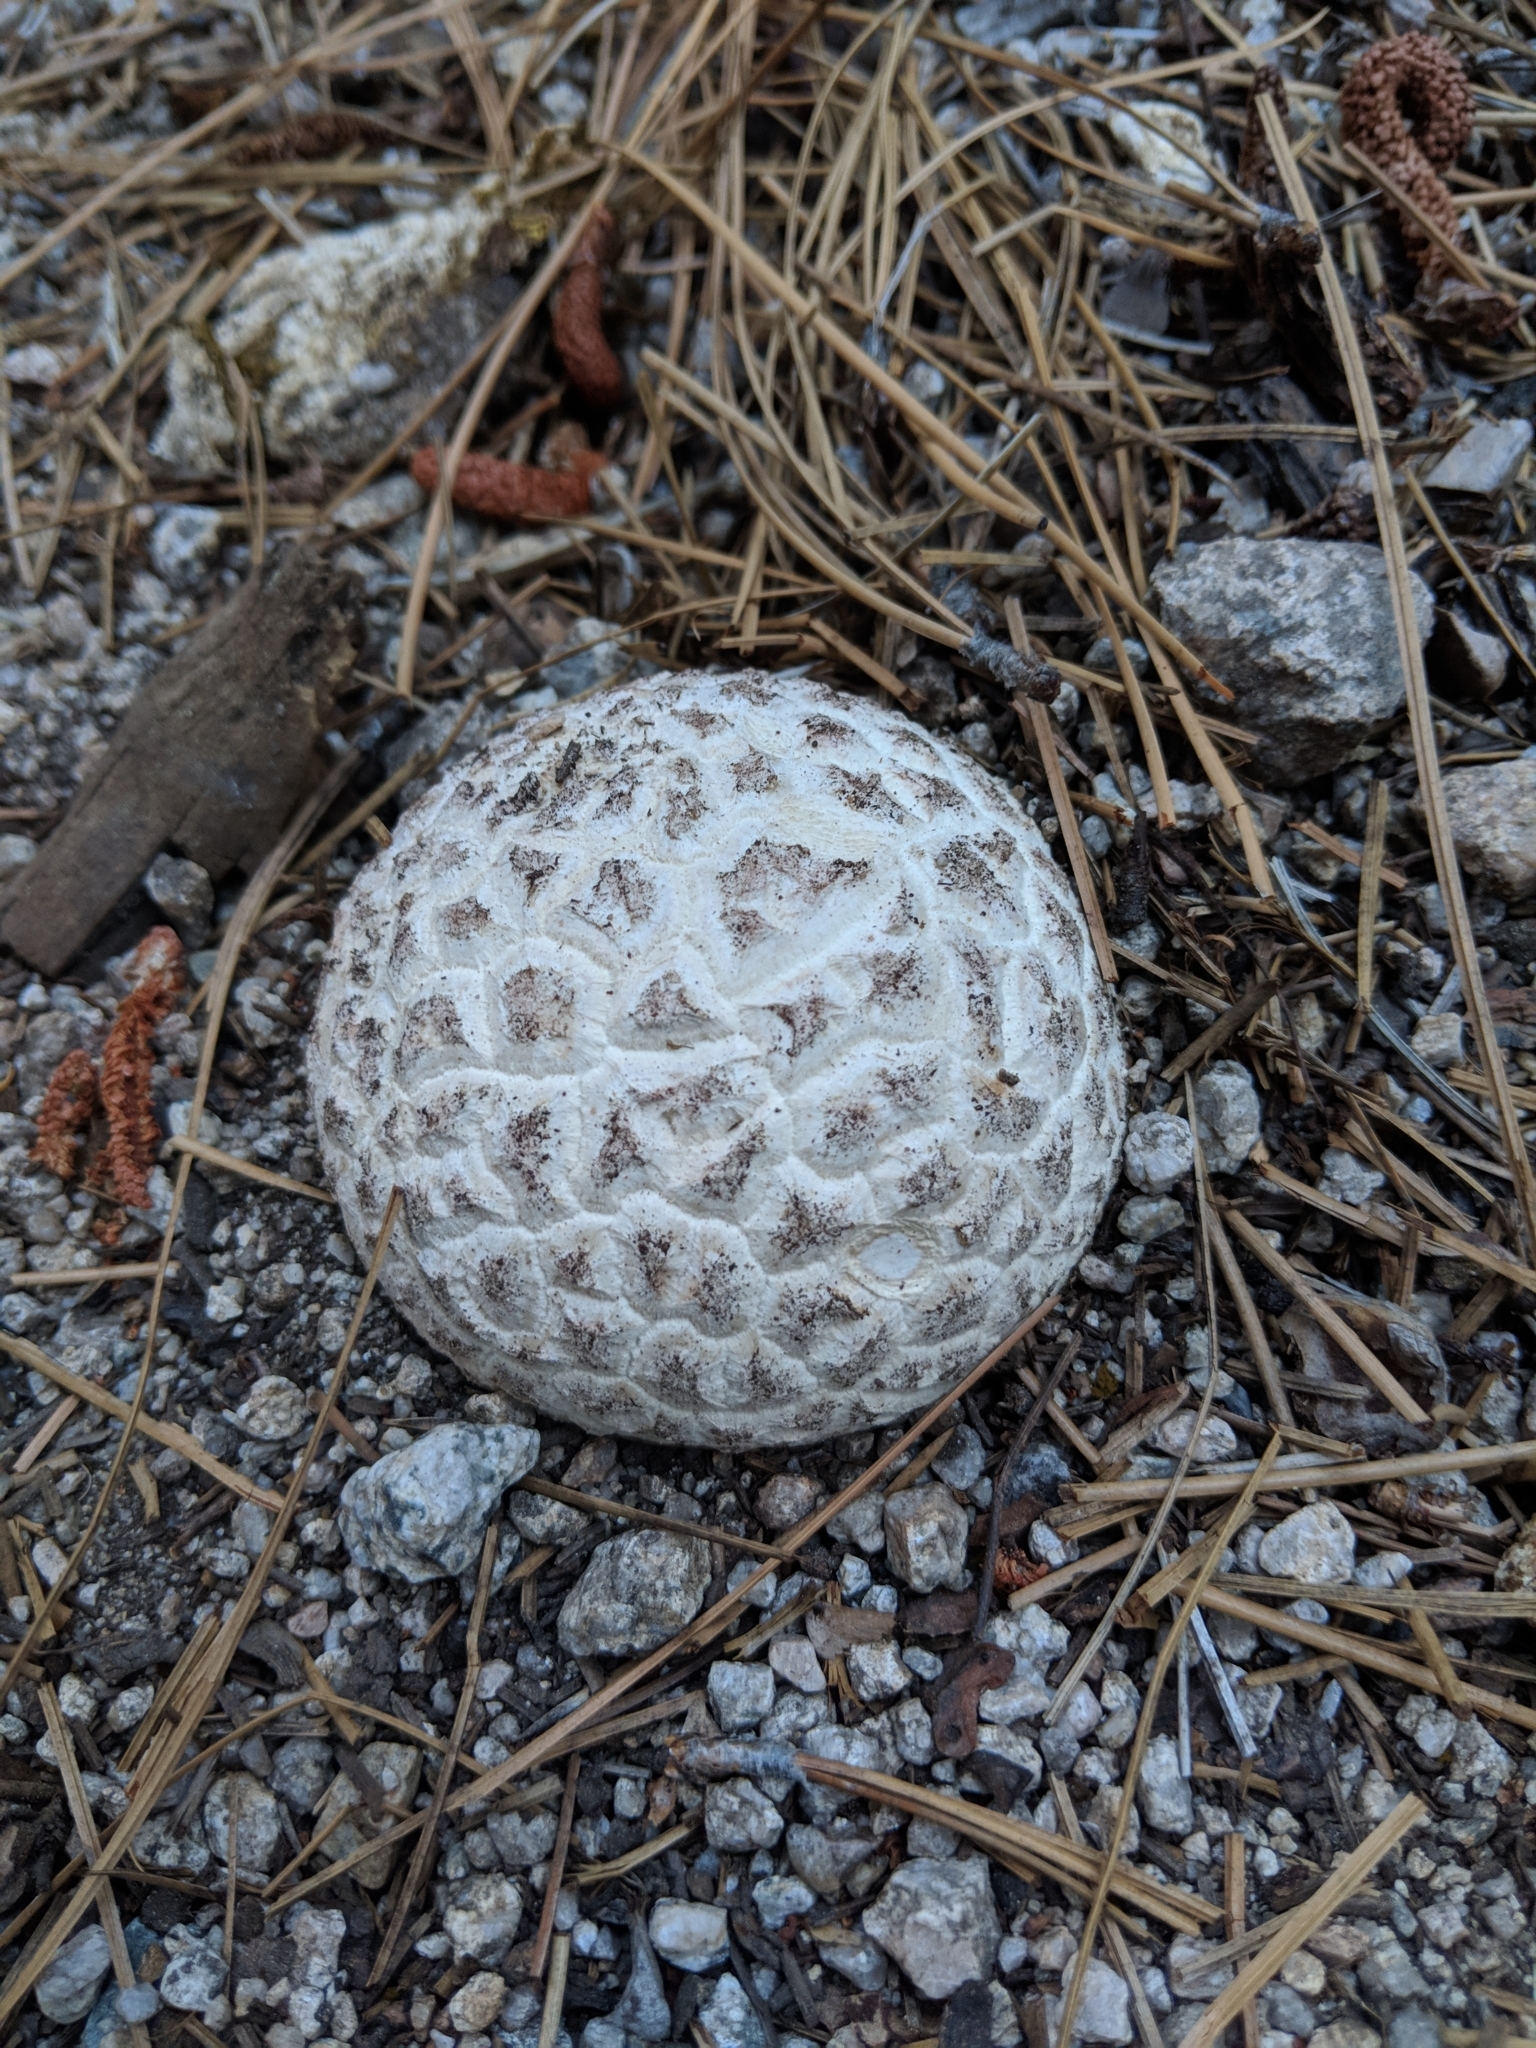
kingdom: Fungi
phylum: Basidiomycota
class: Agaricomycetes
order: Agaricales
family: Lycoperdaceae
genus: Calbovista
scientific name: Calbovista subsculpta
